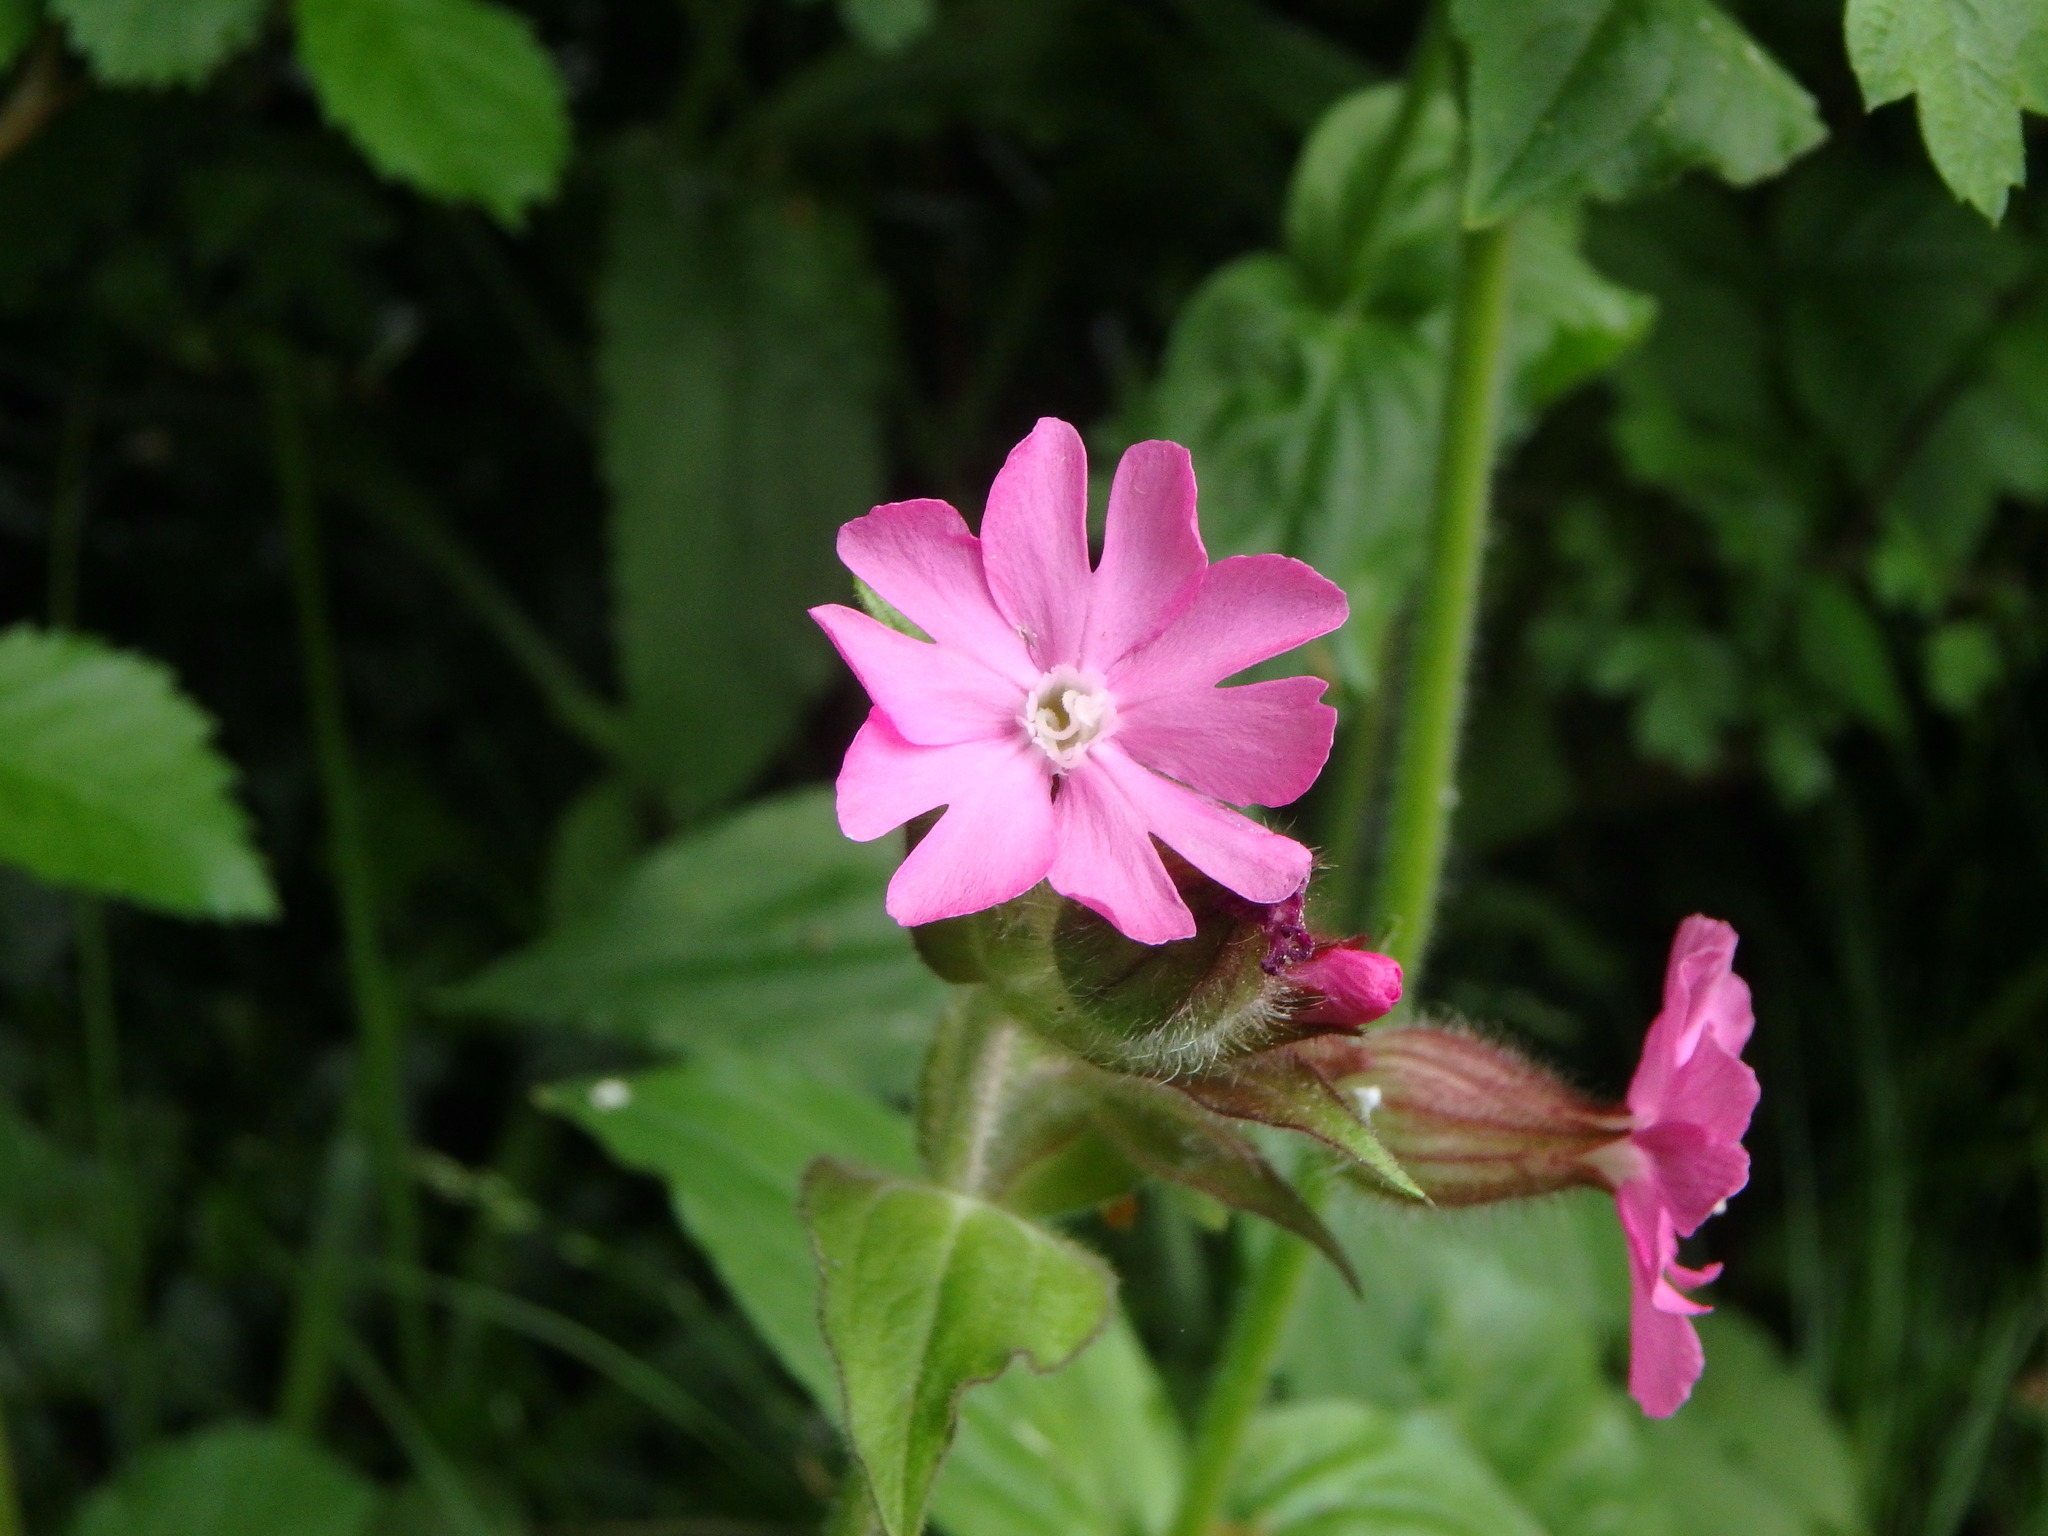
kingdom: Plantae
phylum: Tracheophyta
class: Magnoliopsida
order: Caryophyllales
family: Caryophyllaceae
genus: Silene
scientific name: Silene dioica
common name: Red campion
